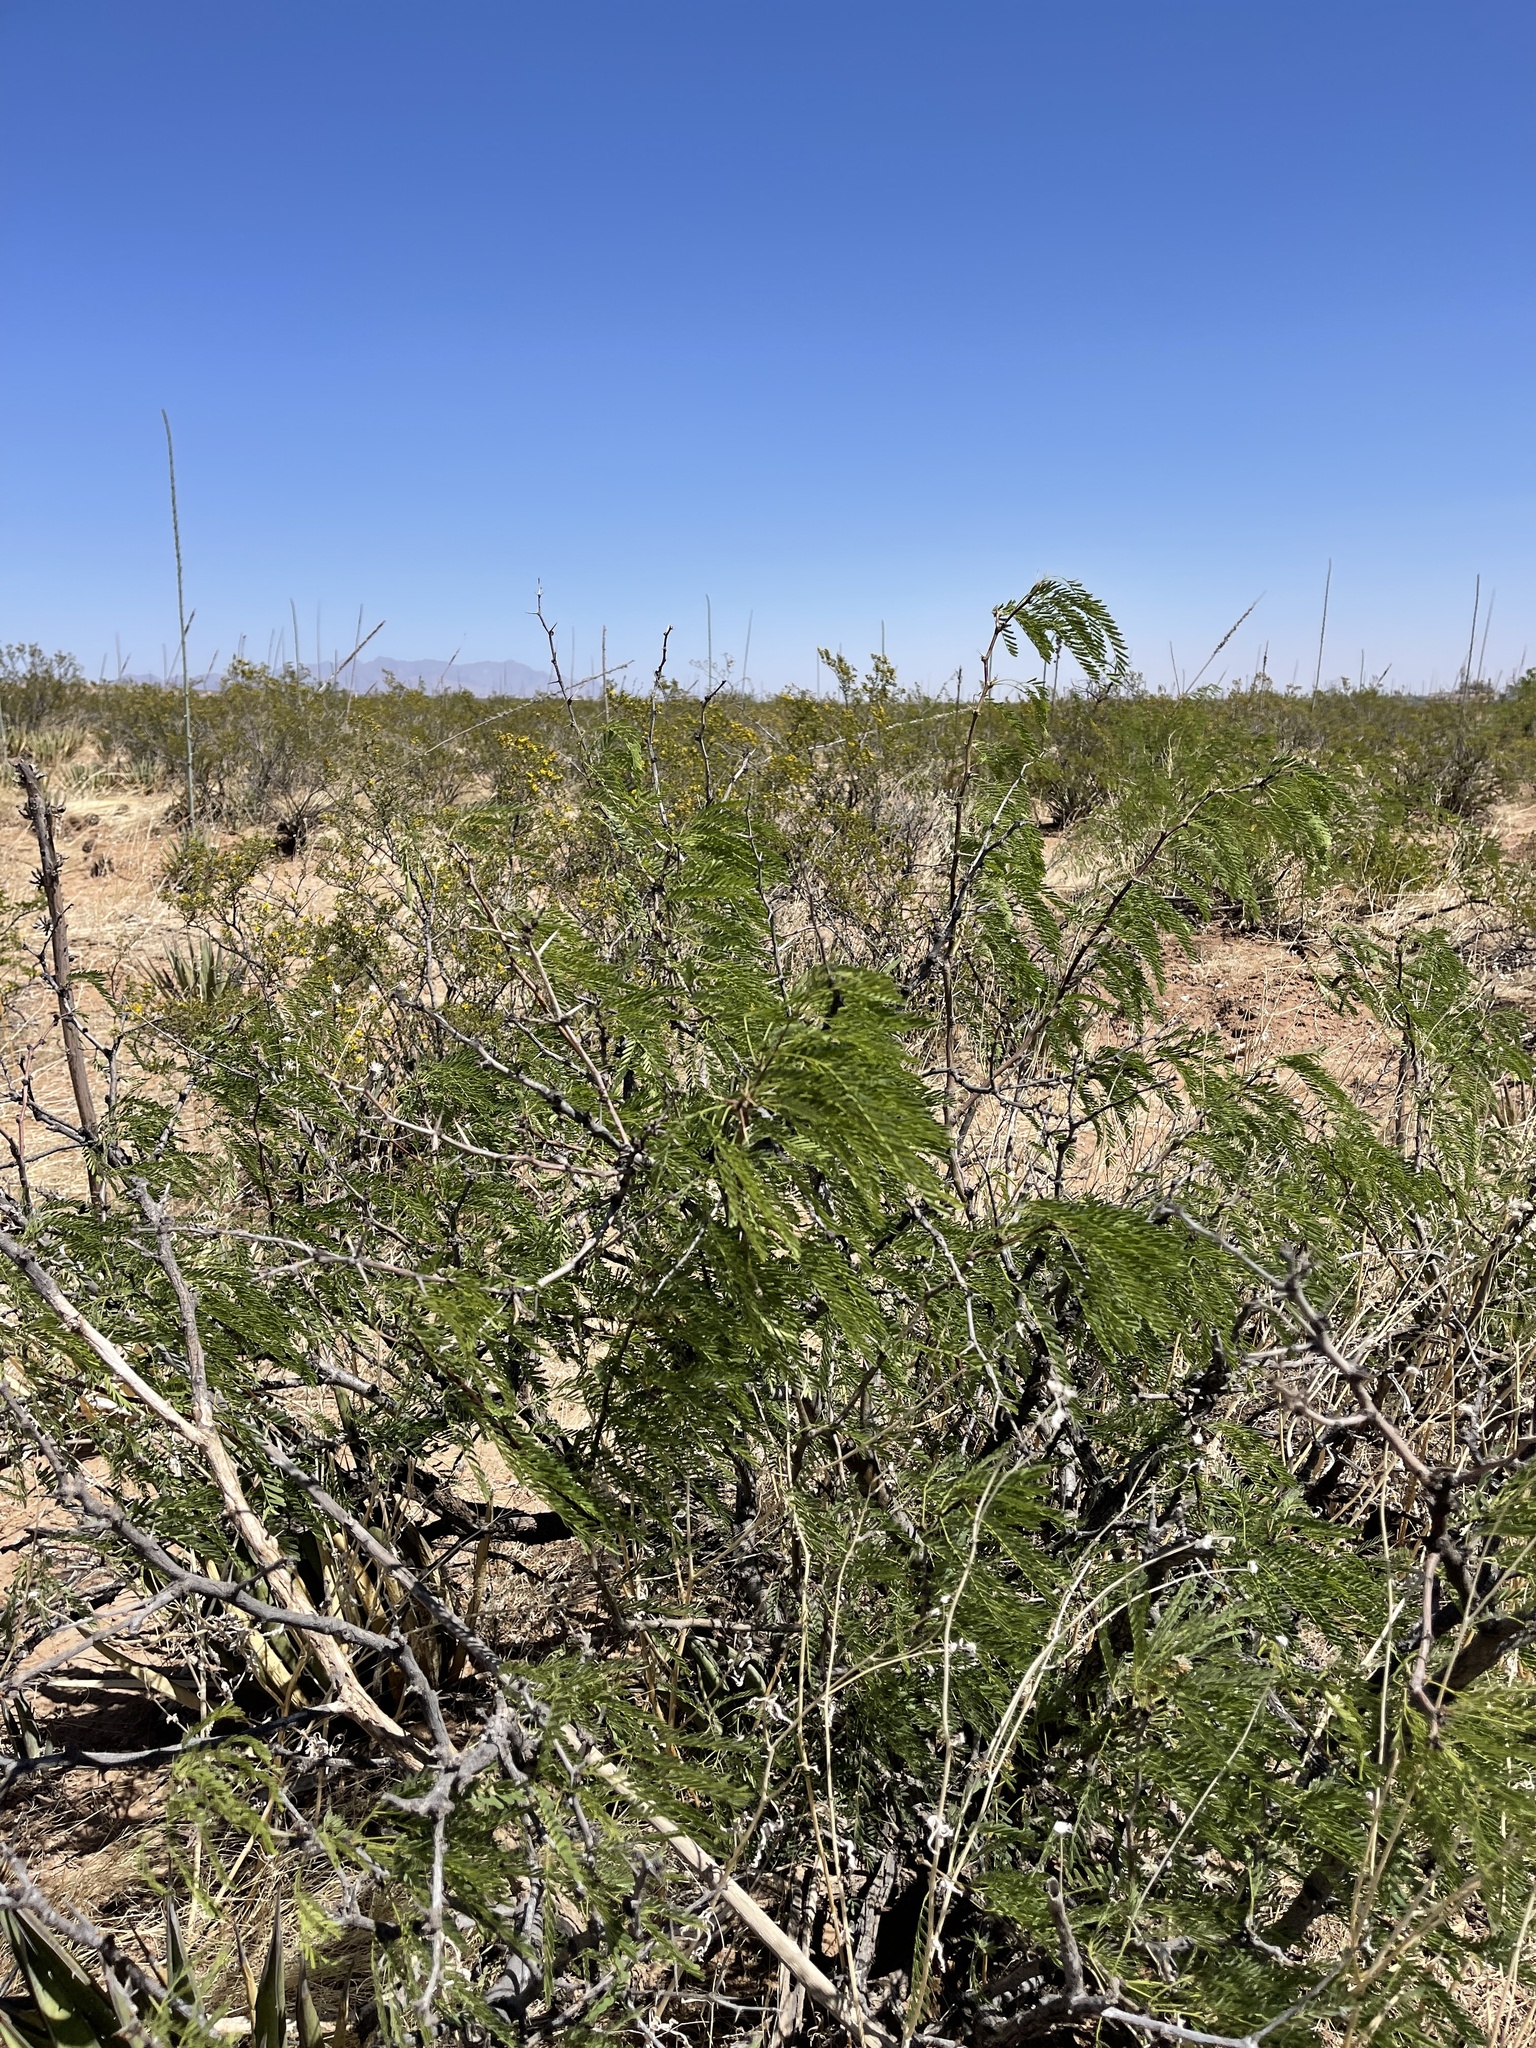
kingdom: Plantae
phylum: Tracheophyta
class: Magnoliopsida
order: Fabales
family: Fabaceae
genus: Prosopis
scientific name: Prosopis glandulosa
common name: Honey mesquite
